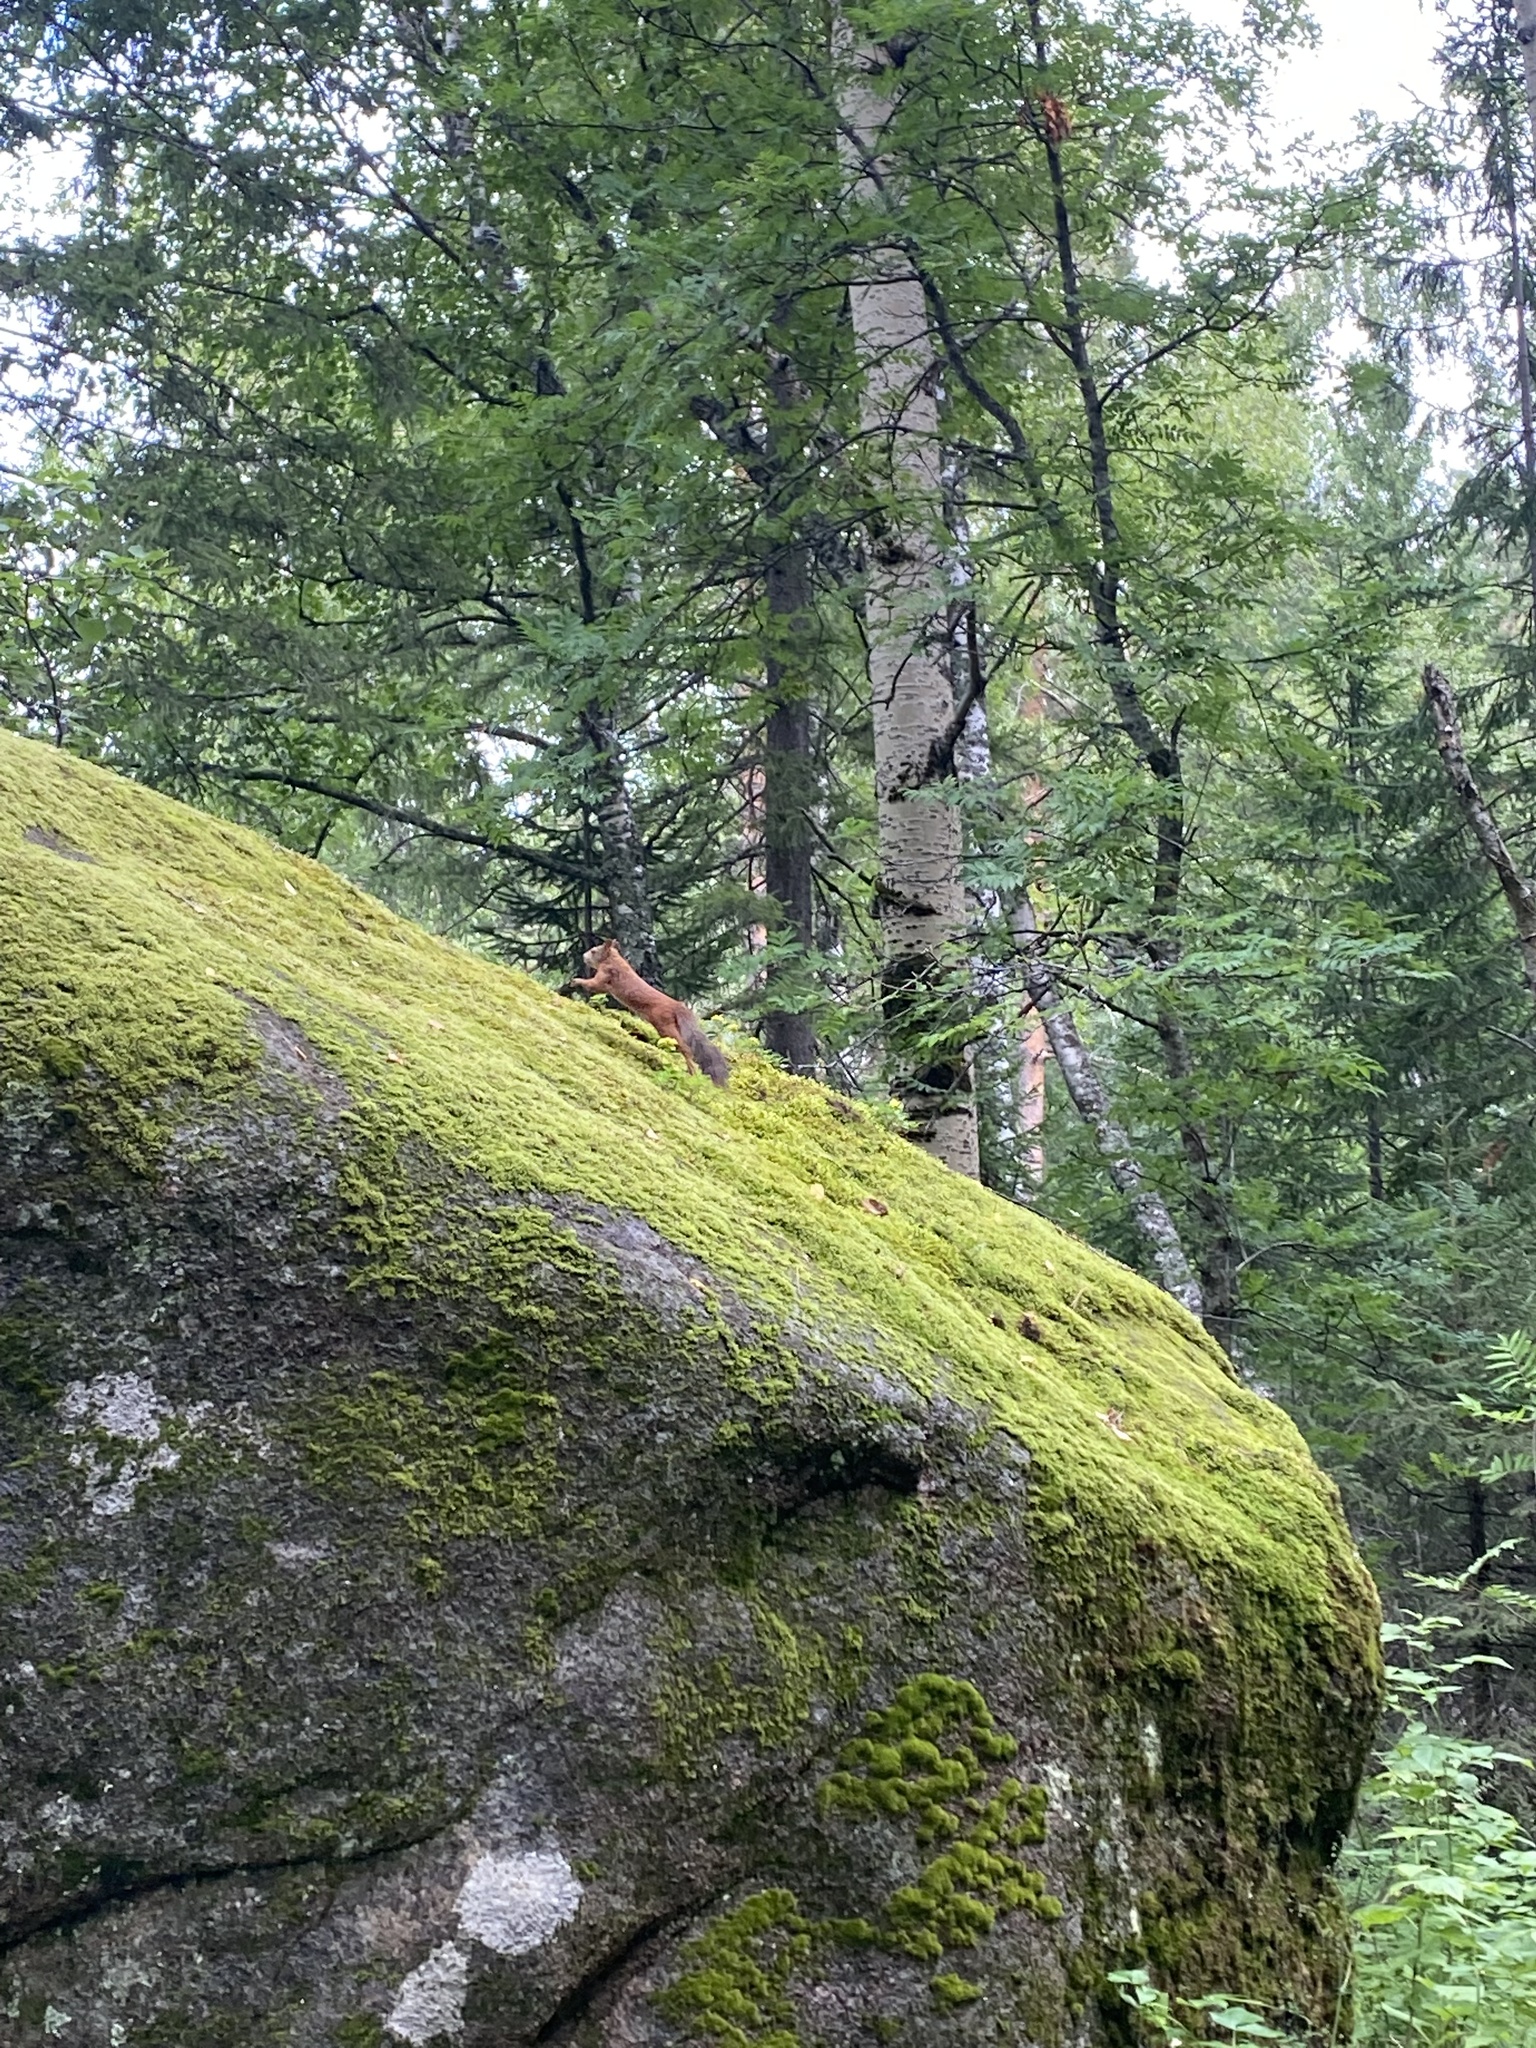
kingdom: Animalia
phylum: Chordata
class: Mammalia
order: Rodentia
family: Sciuridae
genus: Sciurus
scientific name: Sciurus vulgaris
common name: Eurasian red squirrel
